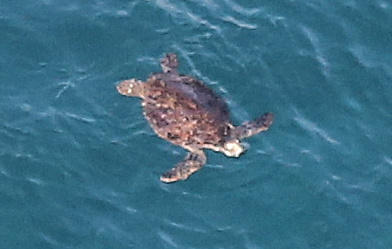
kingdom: Animalia
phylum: Chordata
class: Testudines
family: Cheloniidae
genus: Chelonia
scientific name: Chelonia mydas
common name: Green turtle
